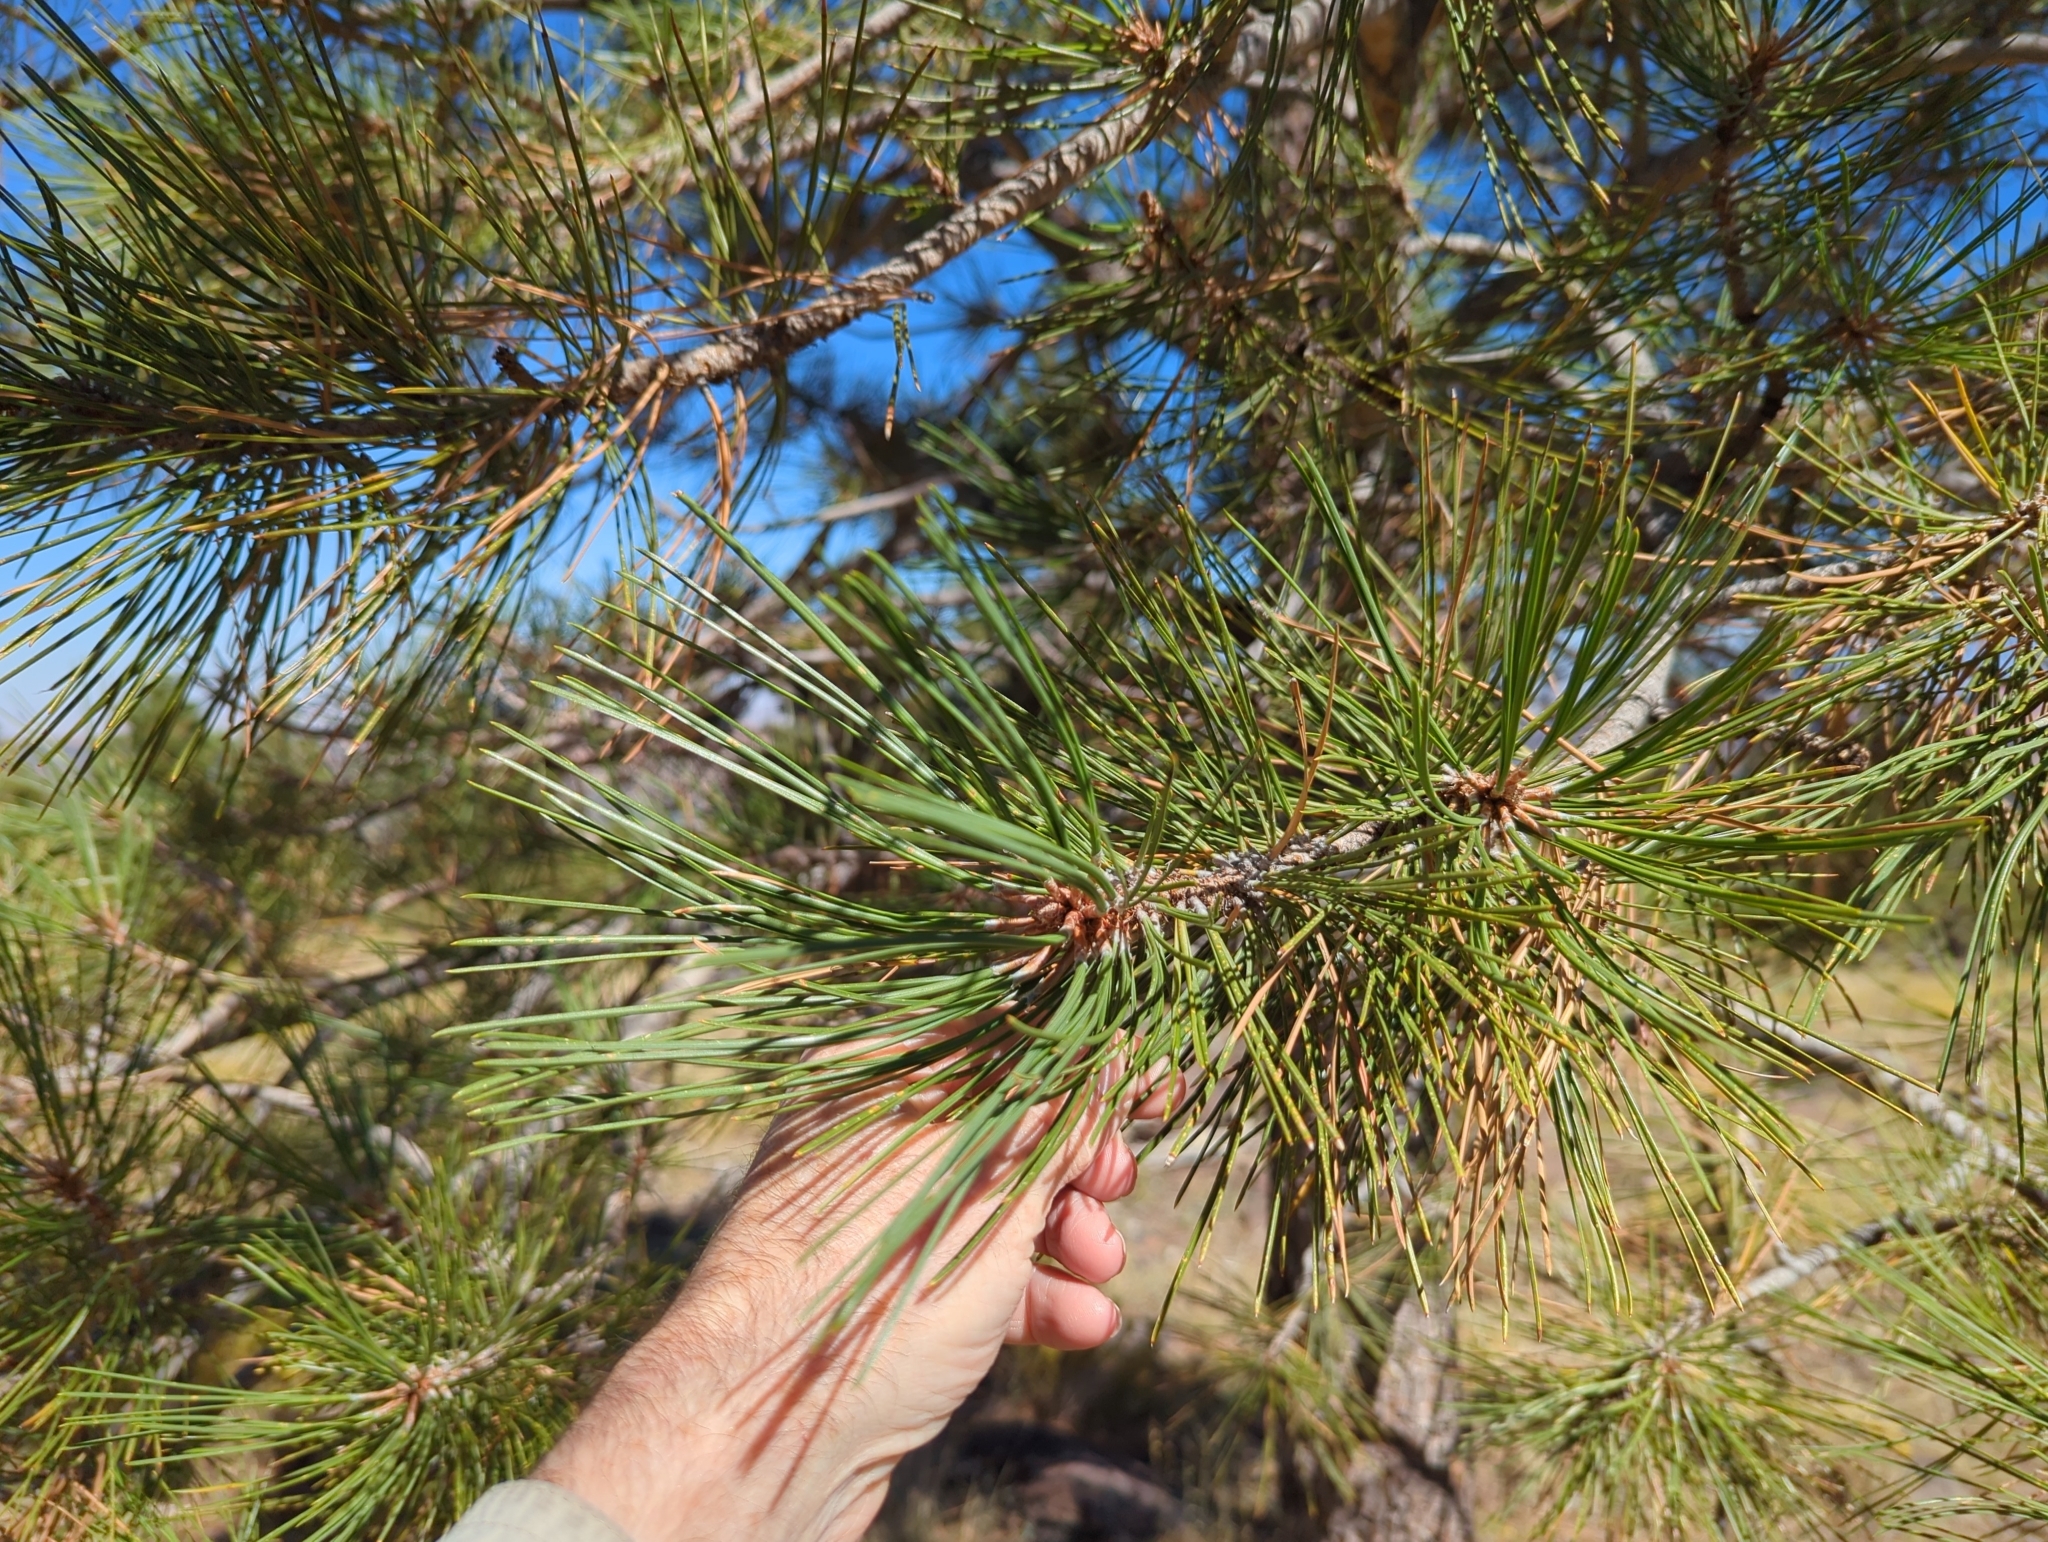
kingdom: Plantae
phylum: Tracheophyta
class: Pinopsida
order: Pinales
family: Pinaceae
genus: Pinus
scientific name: Pinus ponderosa
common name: Western yellow-pine
